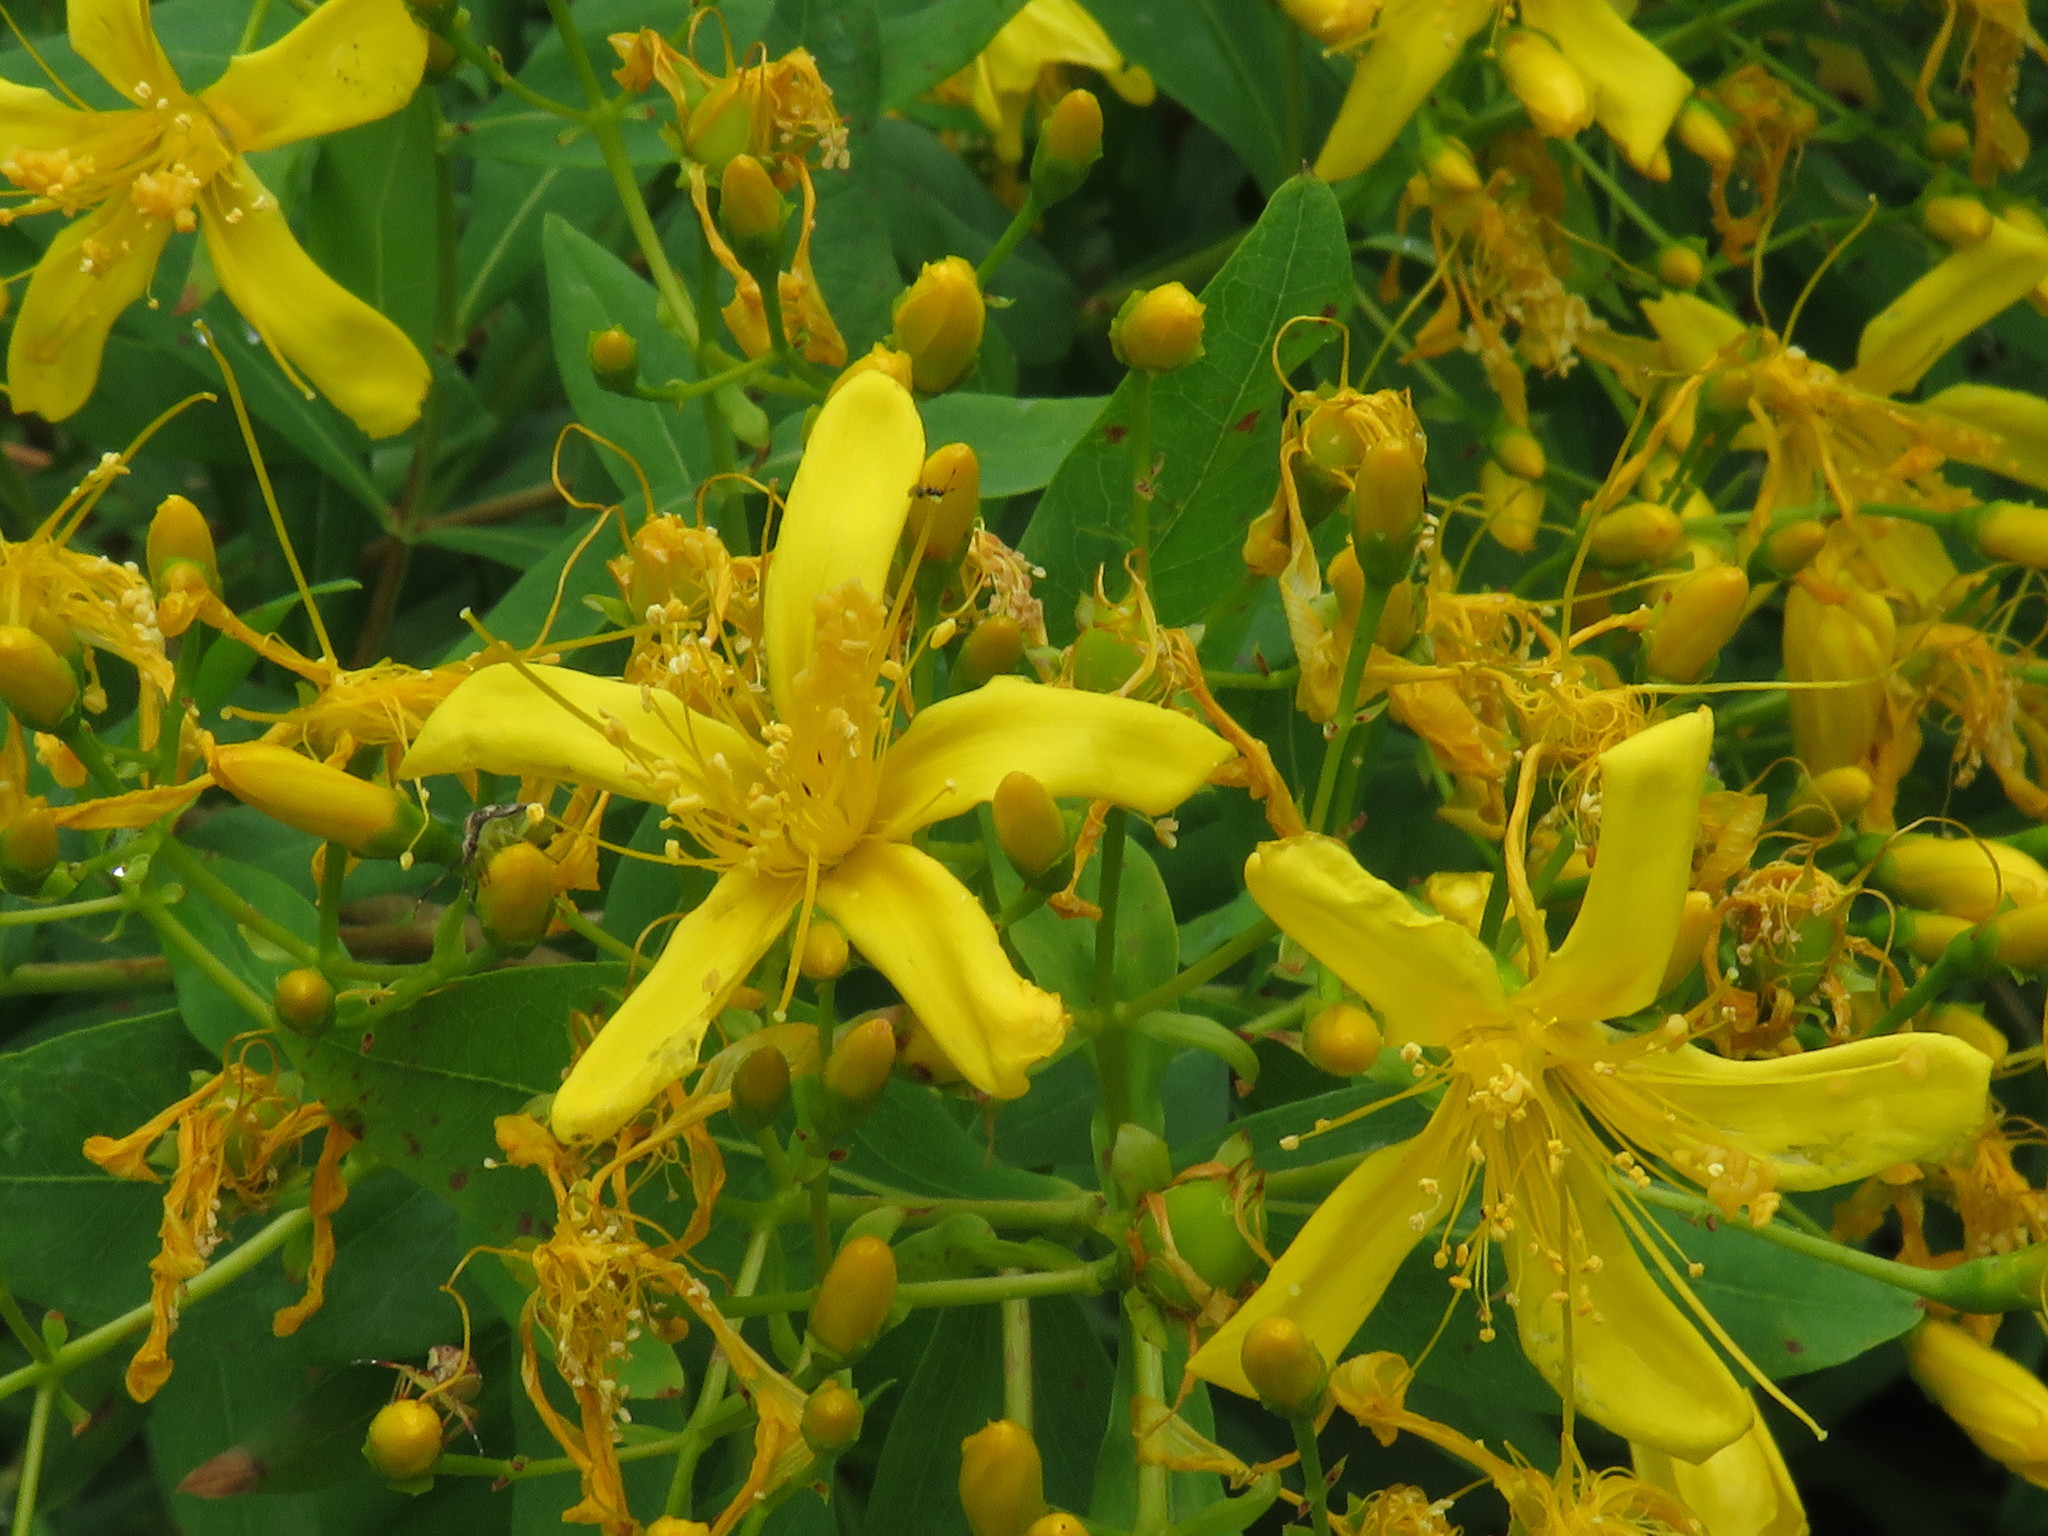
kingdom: Plantae
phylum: Tracheophyta
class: Magnoliopsida
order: Malpighiales
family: Hypericaceae
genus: Hypericum
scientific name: Hypericum canariense
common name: Canary island st. johnswort
